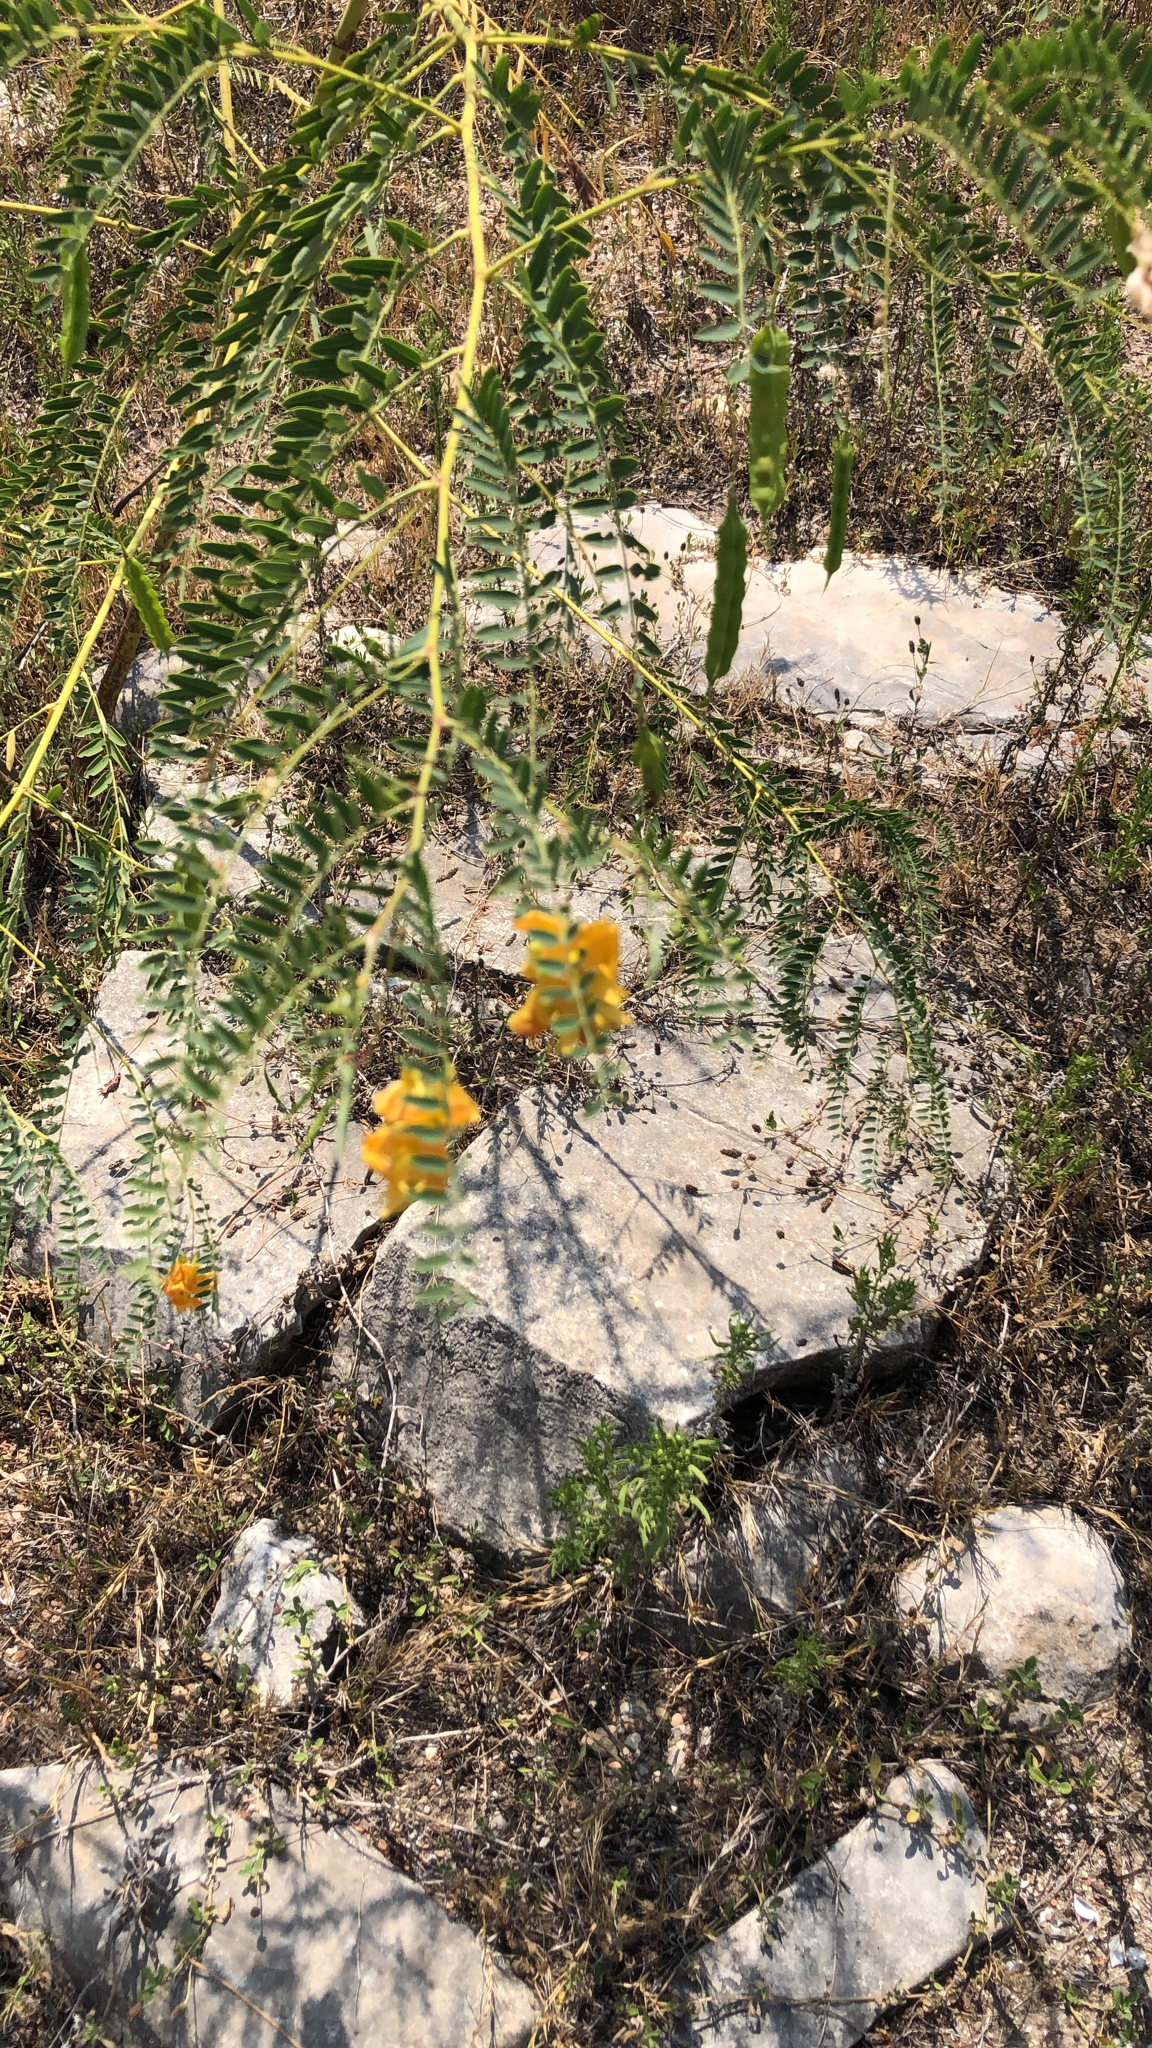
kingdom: Plantae
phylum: Tracheophyta
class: Magnoliopsida
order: Fabales
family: Fabaceae
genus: Sesbania
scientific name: Sesbania drummondii
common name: Poison-bean
